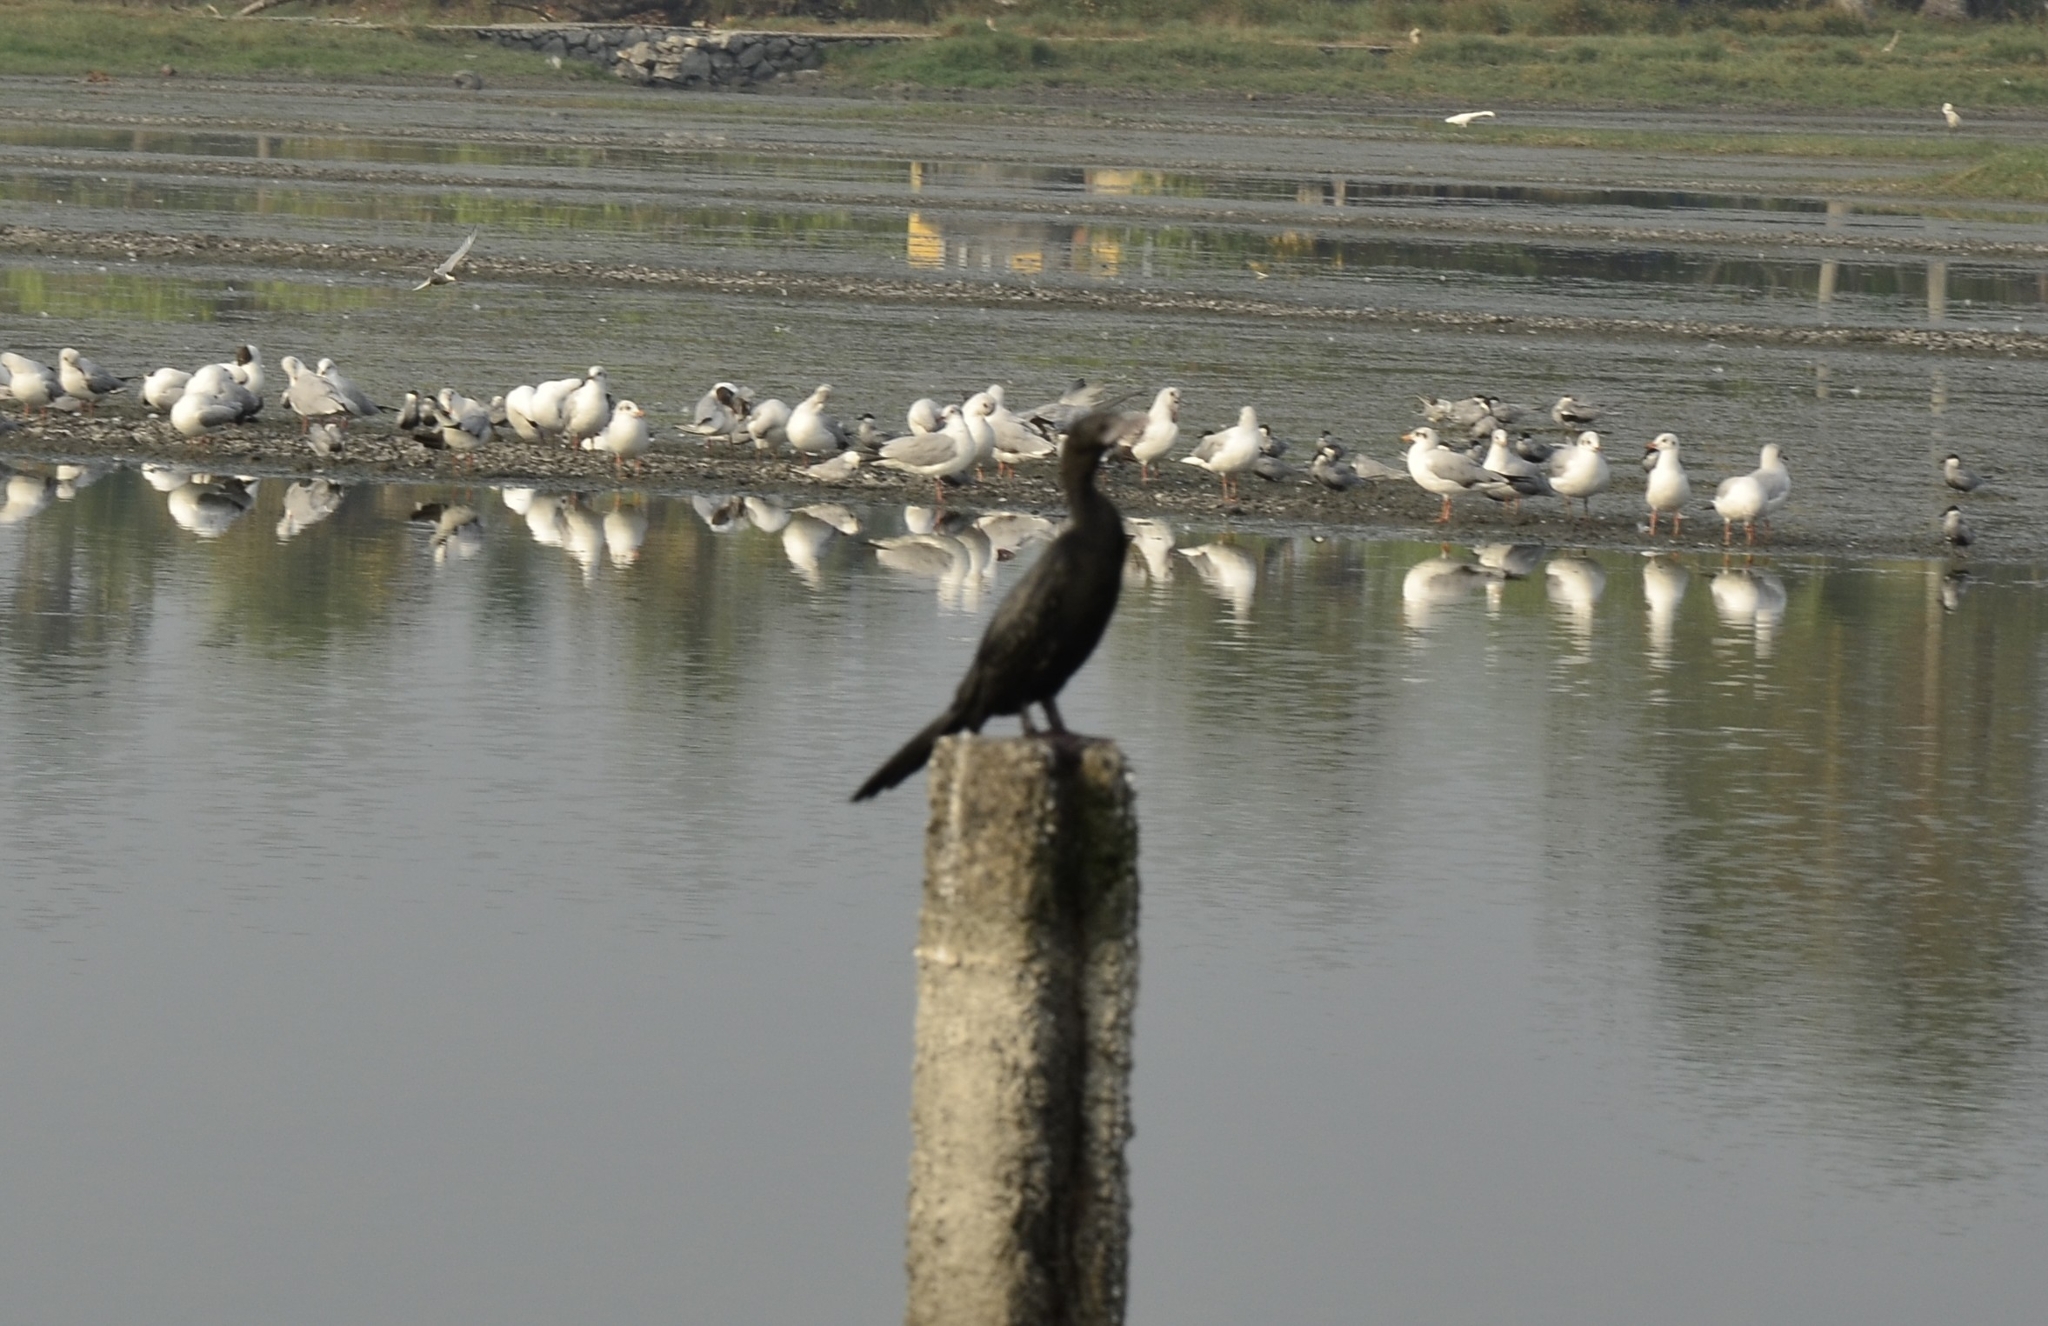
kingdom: Animalia
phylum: Chordata
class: Aves
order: Suliformes
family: Phalacrocoracidae
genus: Microcarbo
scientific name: Microcarbo niger
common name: Little cormorant
